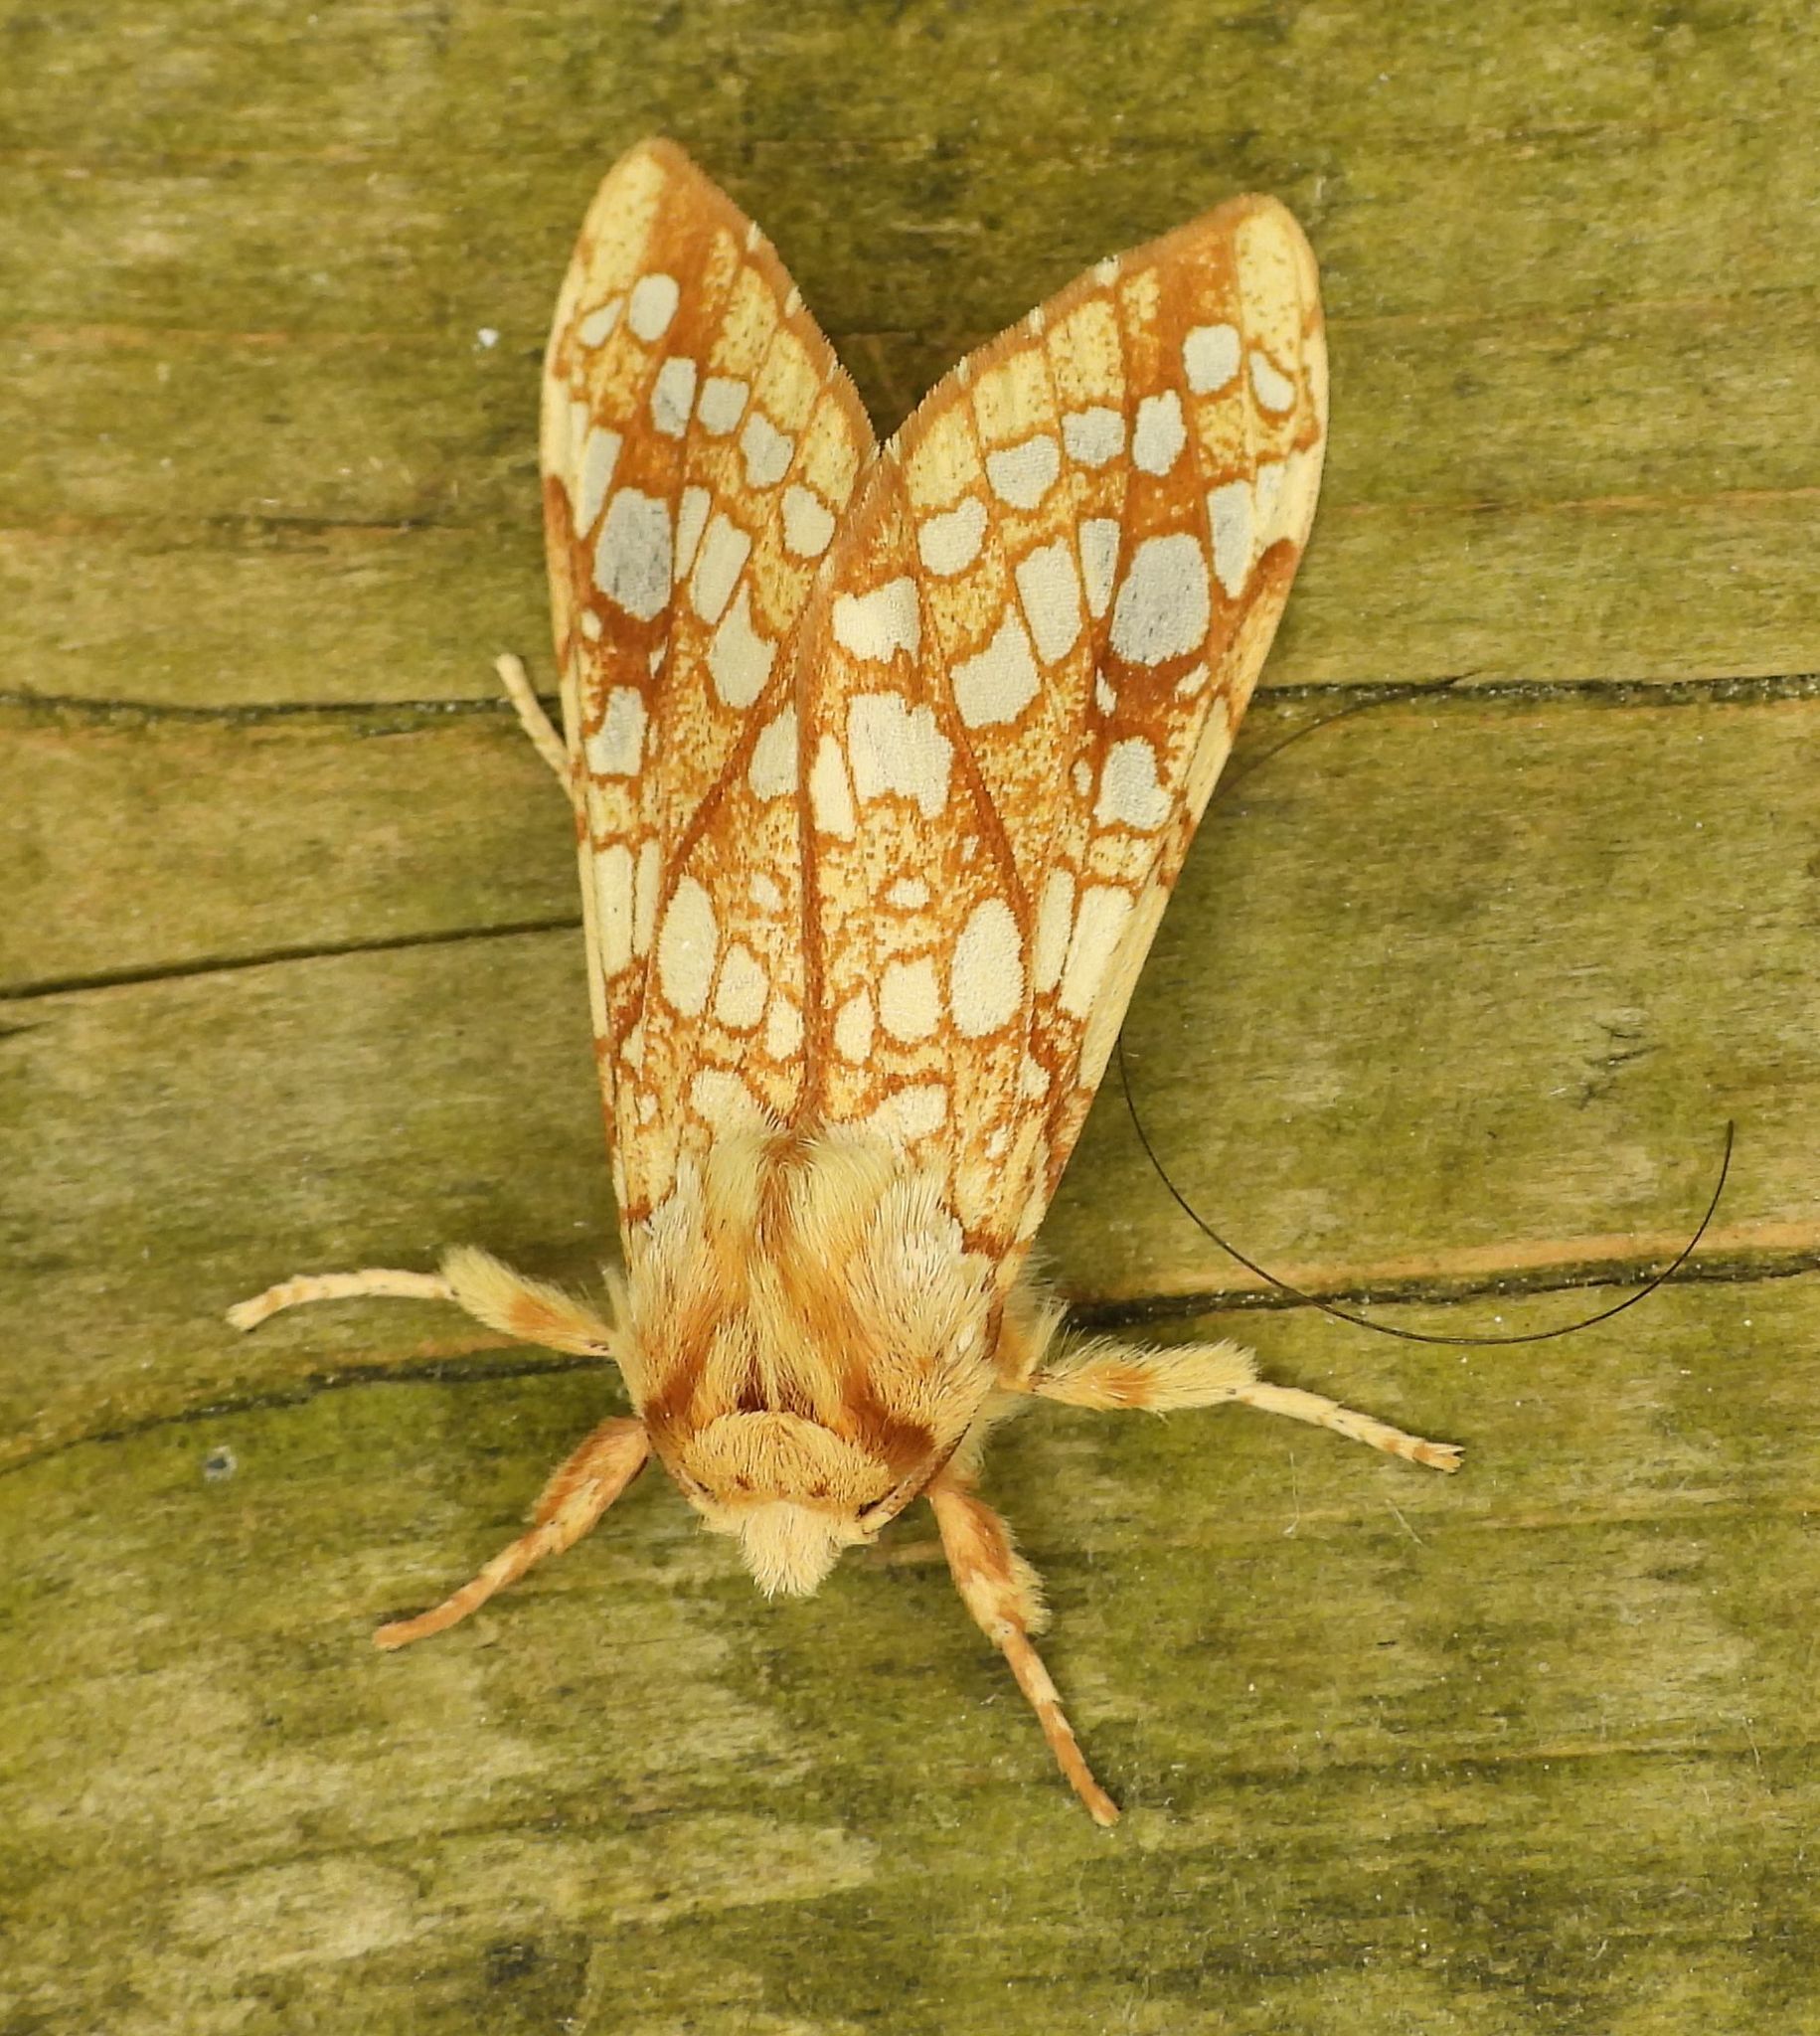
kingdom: Animalia
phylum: Arthropoda
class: Insecta
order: Lepidoptera
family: Erebidae
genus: Lophocampa
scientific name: Lophocampa caryae
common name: Hickory tussock moth
